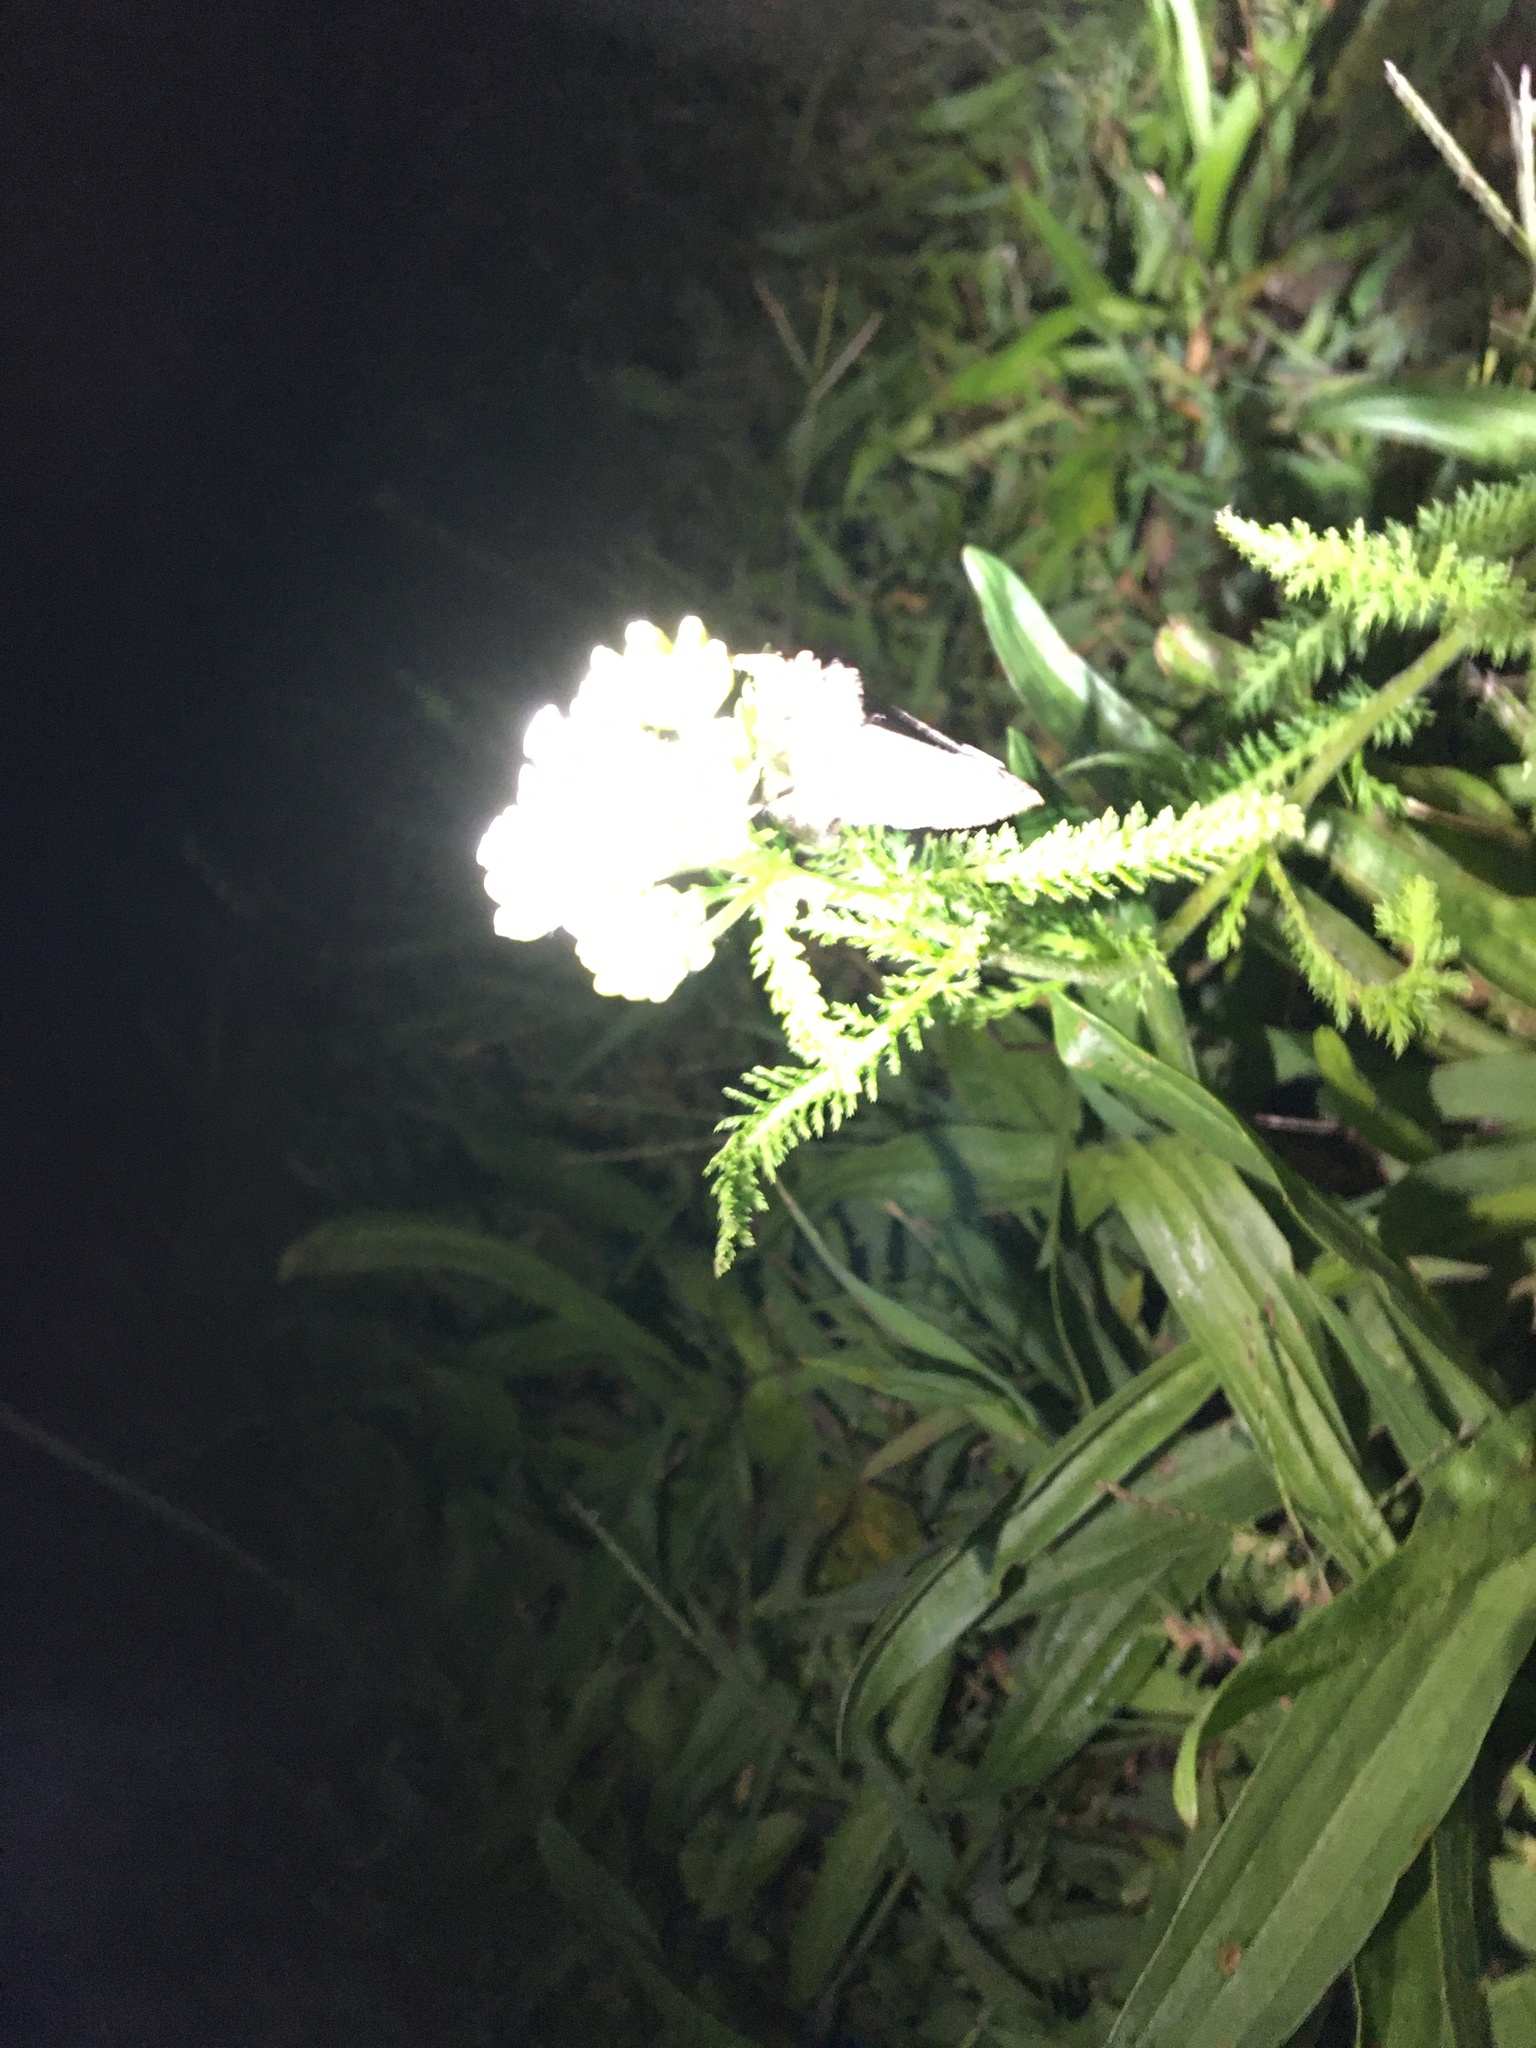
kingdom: Plantae
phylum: Tracheophyta
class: Magnoliopsida
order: Asterales
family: Asteraceae
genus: Achillea
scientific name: Achillea millefolium
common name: Yarrow
